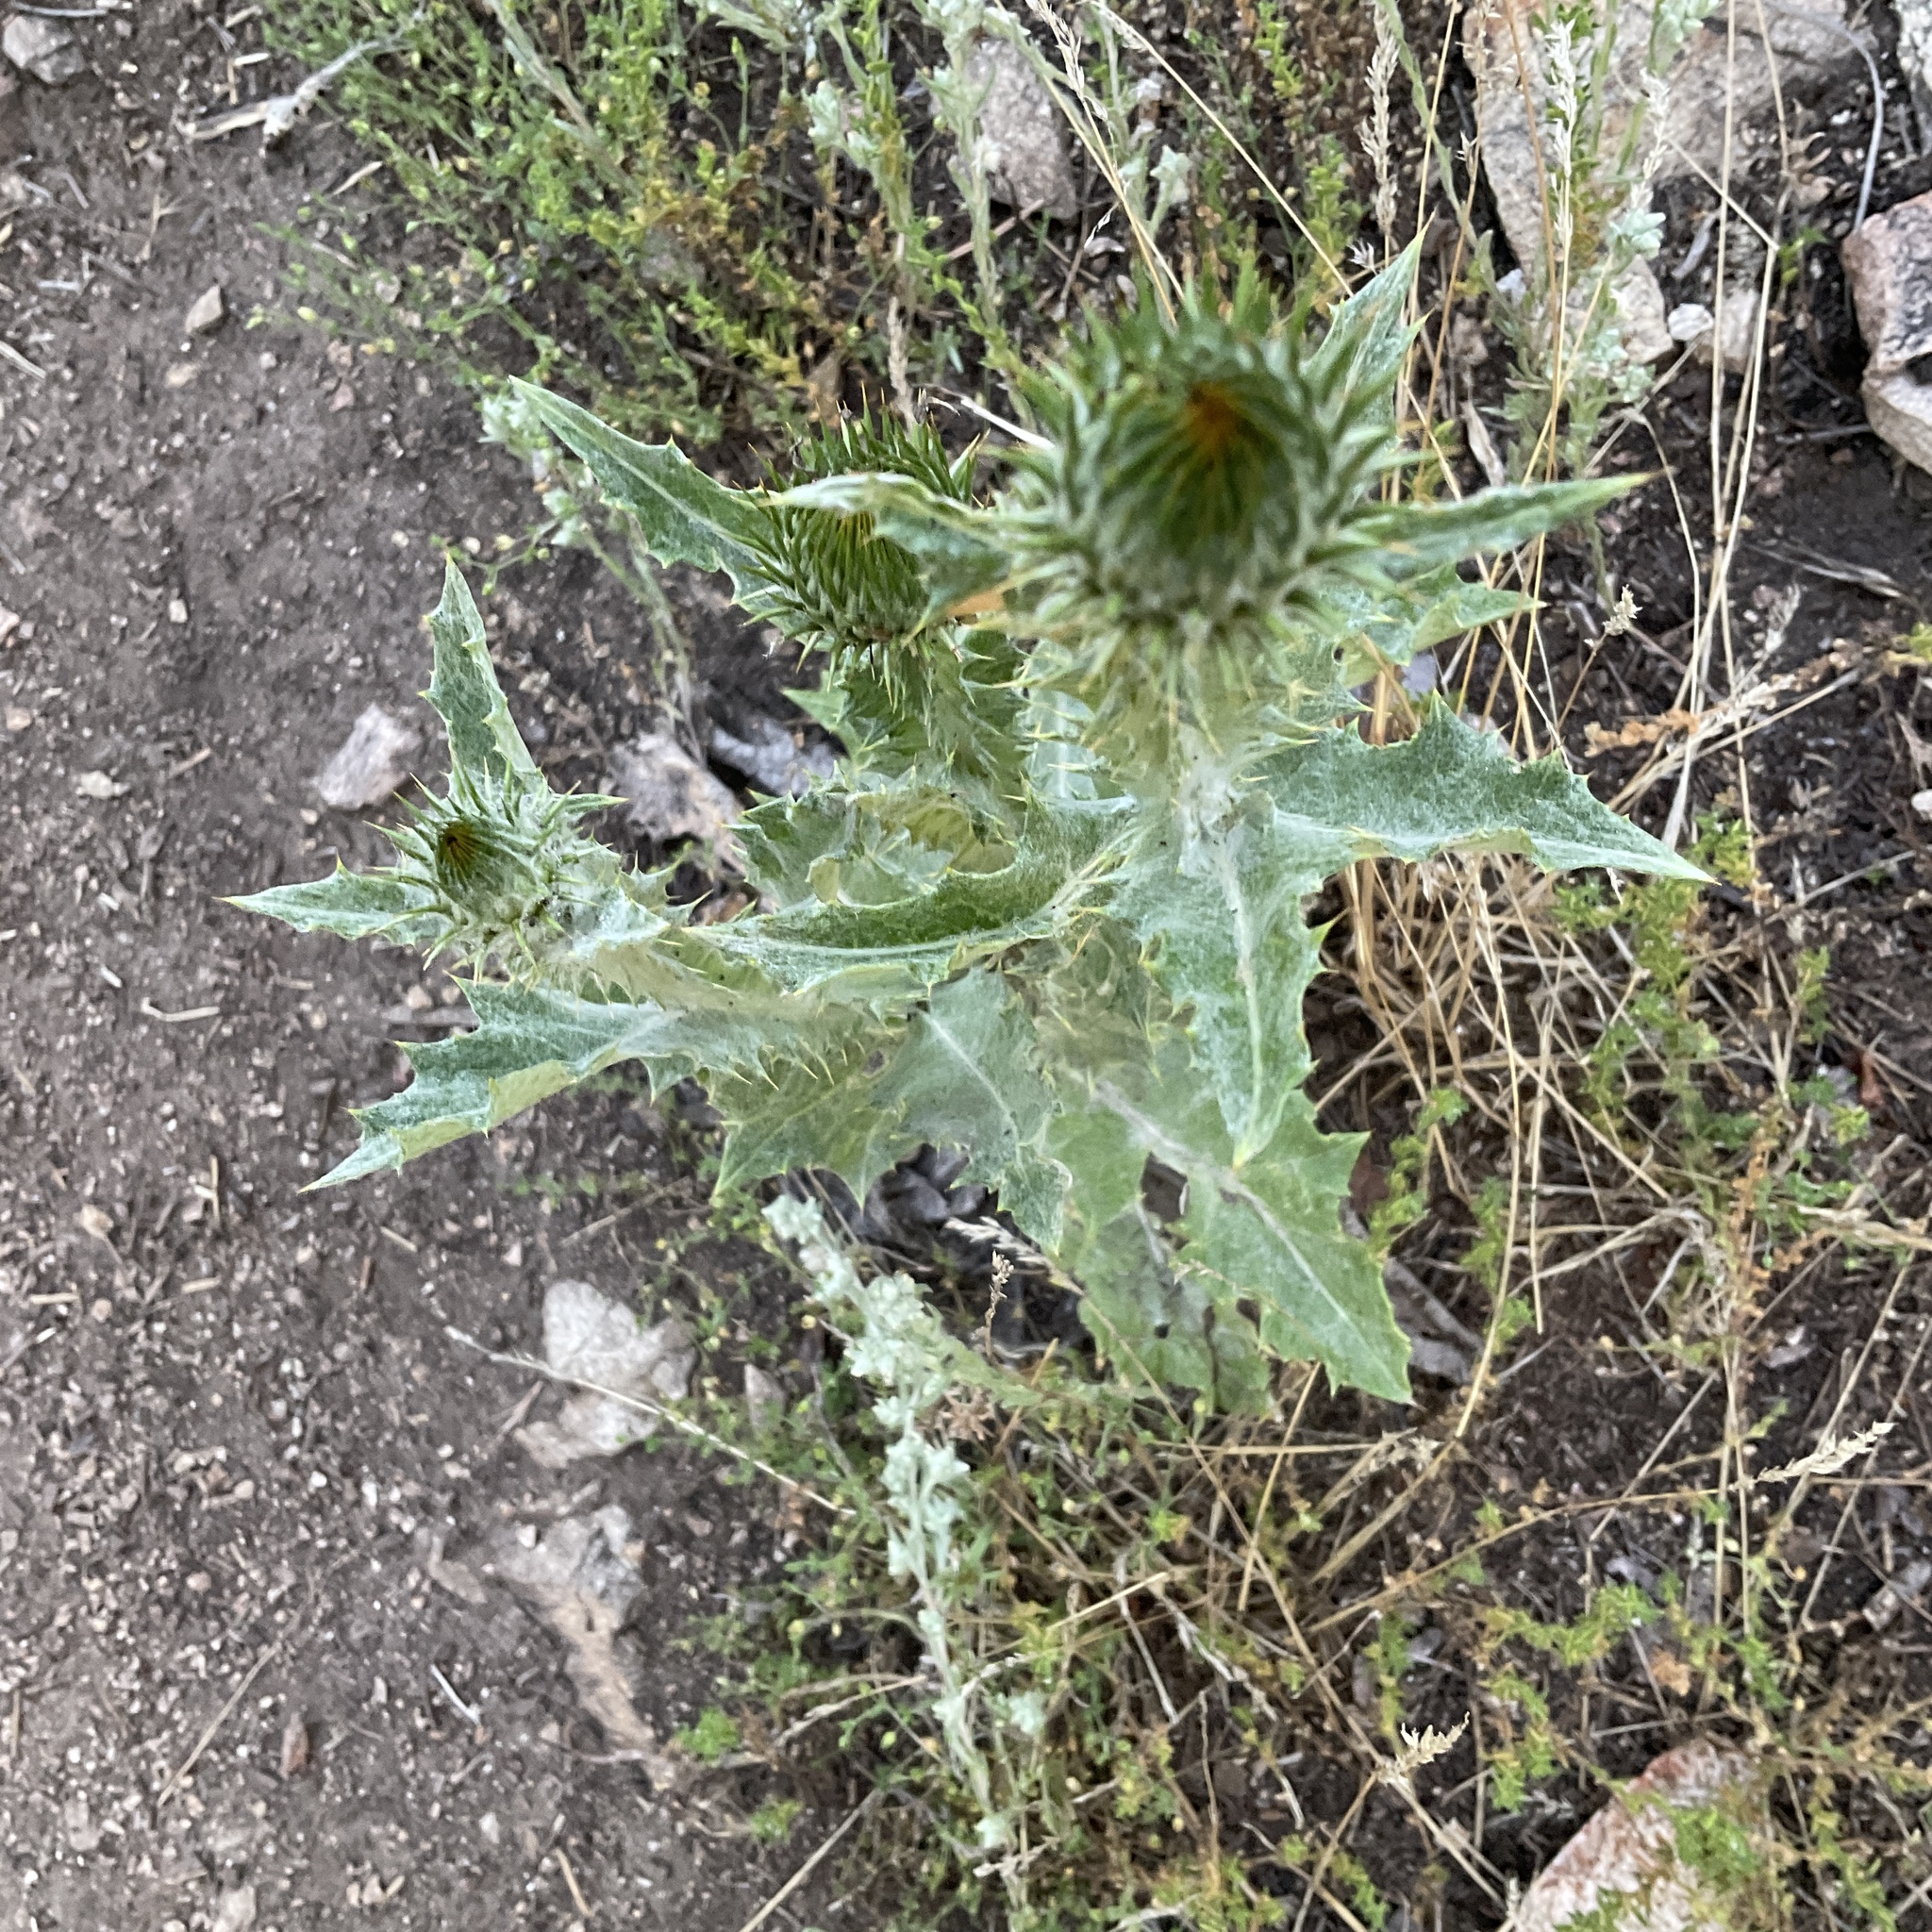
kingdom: Plantae
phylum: Tracheophyta
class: Magnoliopsida
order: Asterales
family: Asteraceae
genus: Onopordum
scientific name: Onopordum acanthium
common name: Scotch thistle
